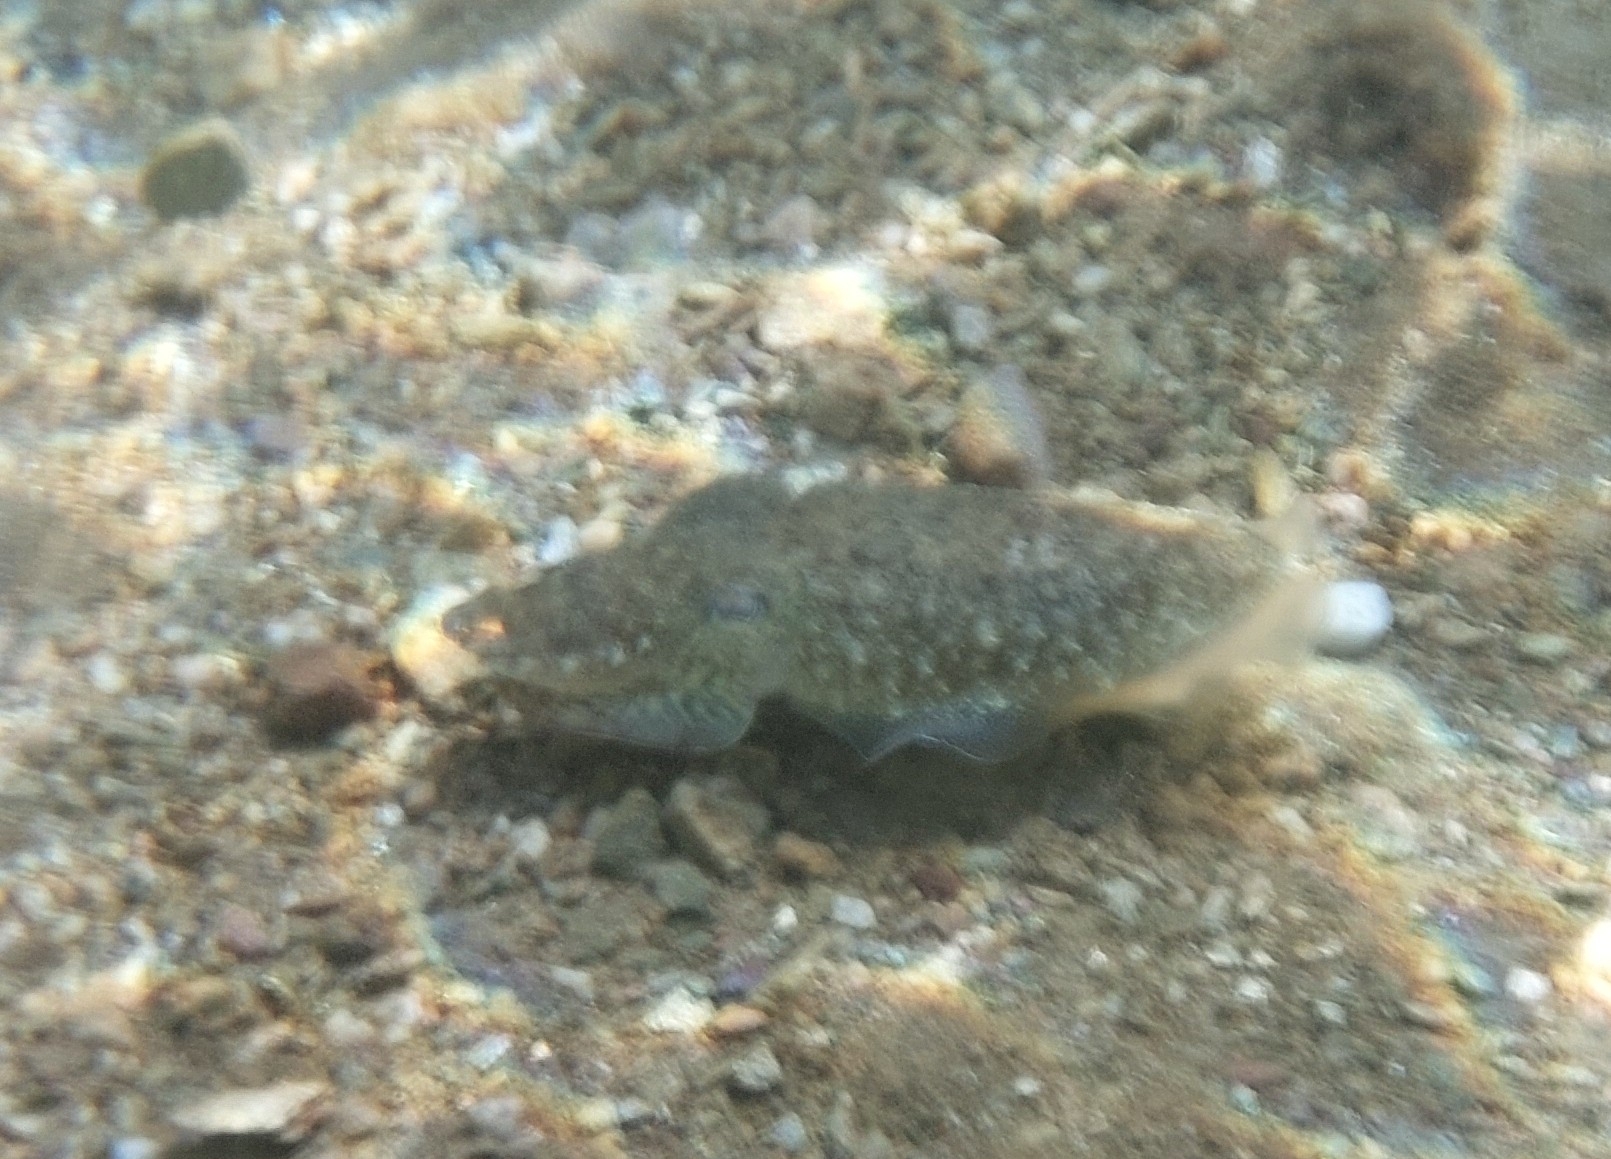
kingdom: Animalia
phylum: Mollusca
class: Cephalopoda
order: Sepiida
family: Sepiidae
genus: Sepia
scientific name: Sepia officinalis
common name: Common cuttlefish
